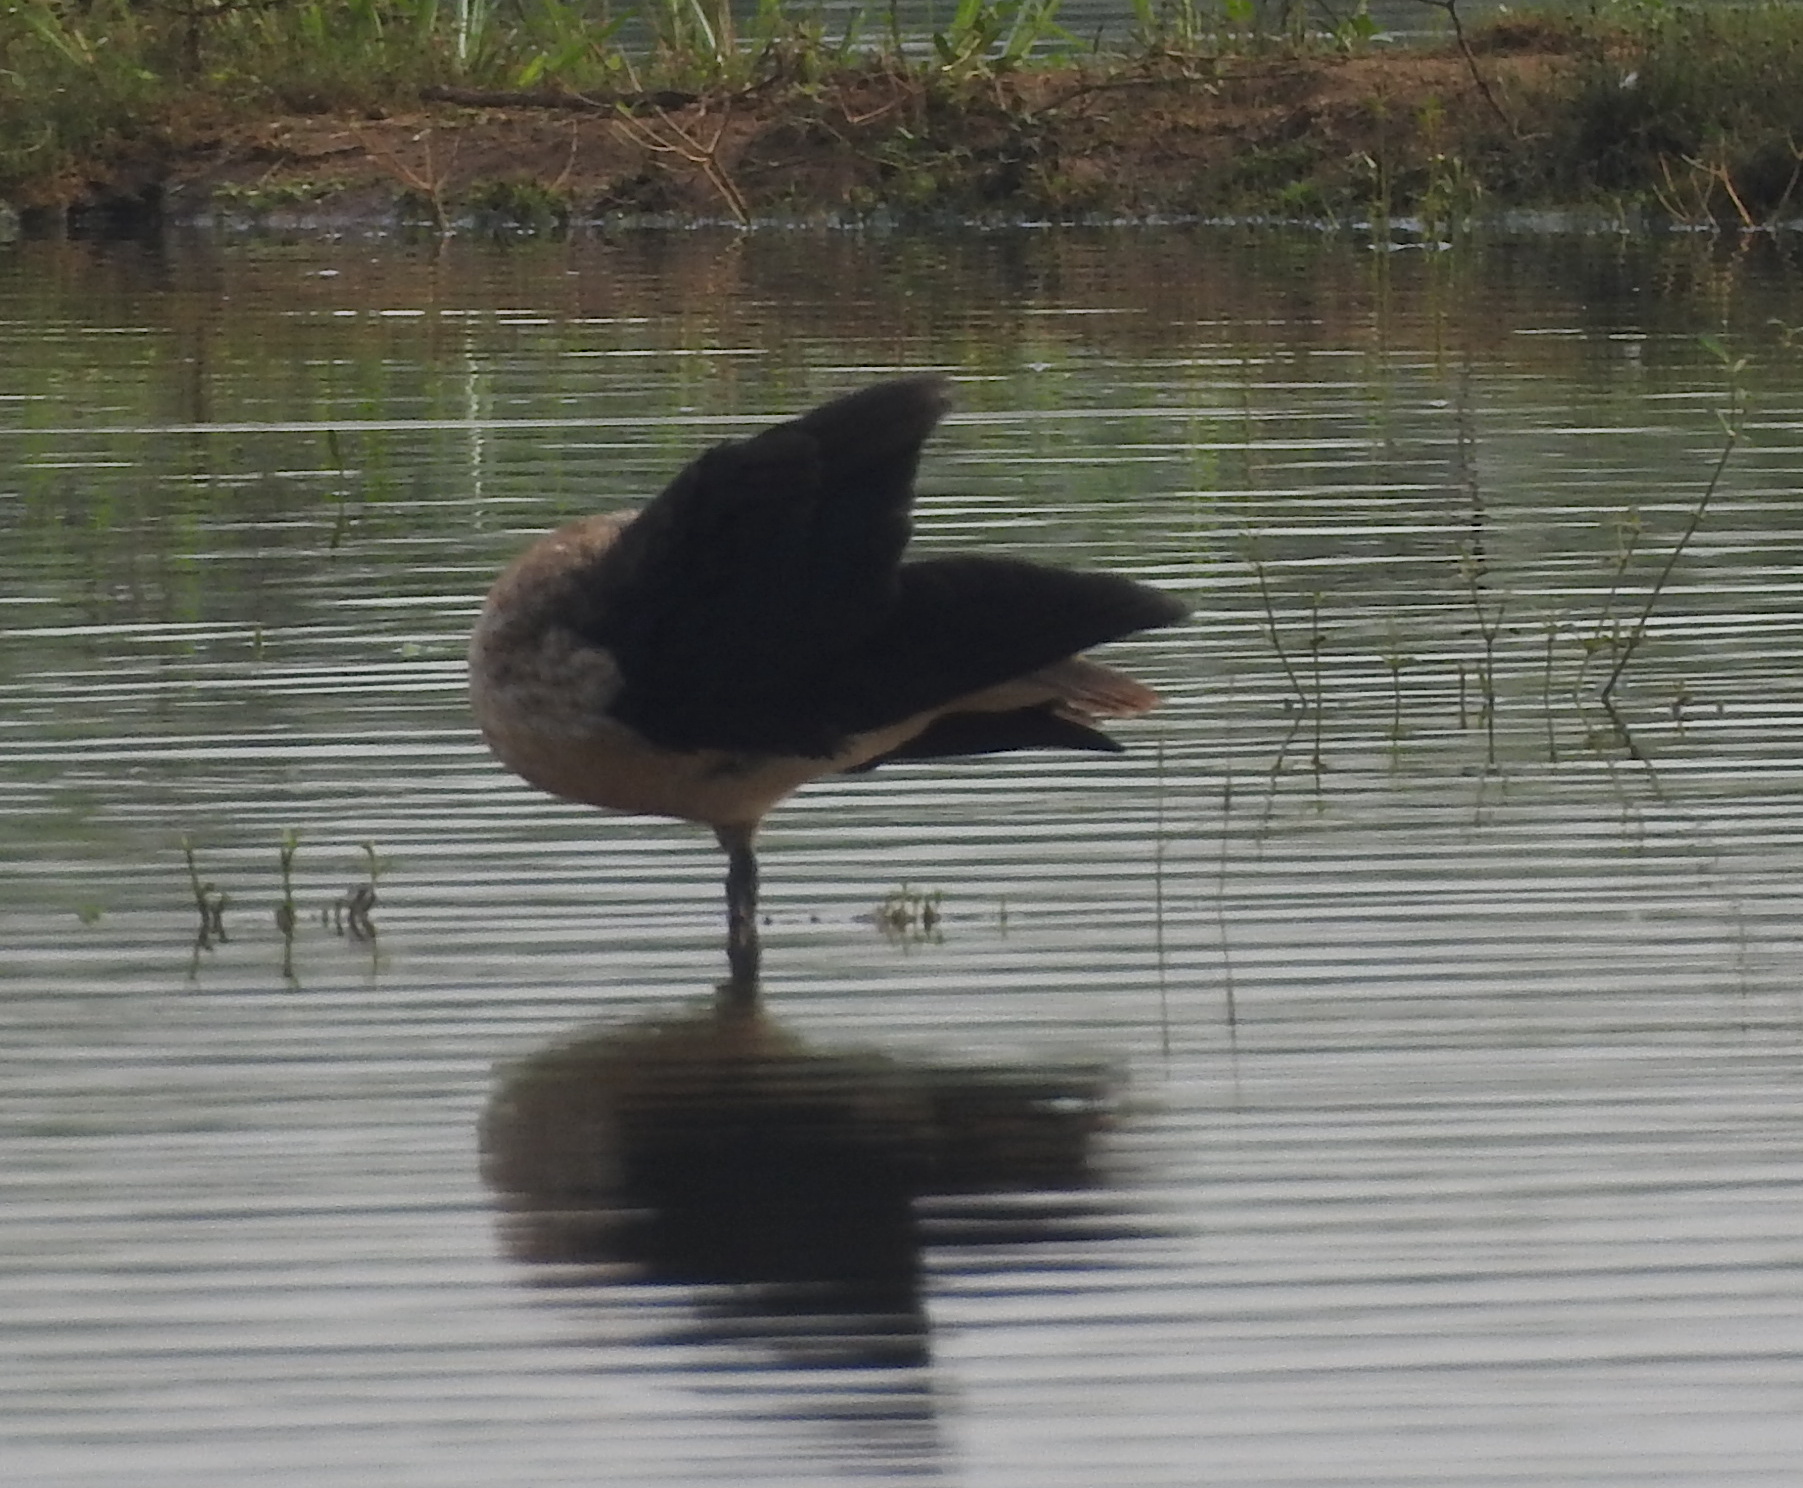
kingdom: Animalia
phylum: Chordata
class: Aves
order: Anseriformes
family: Anatidae
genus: Sarkidiornis
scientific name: Sarkidiornis melanotos
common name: Comb duck
